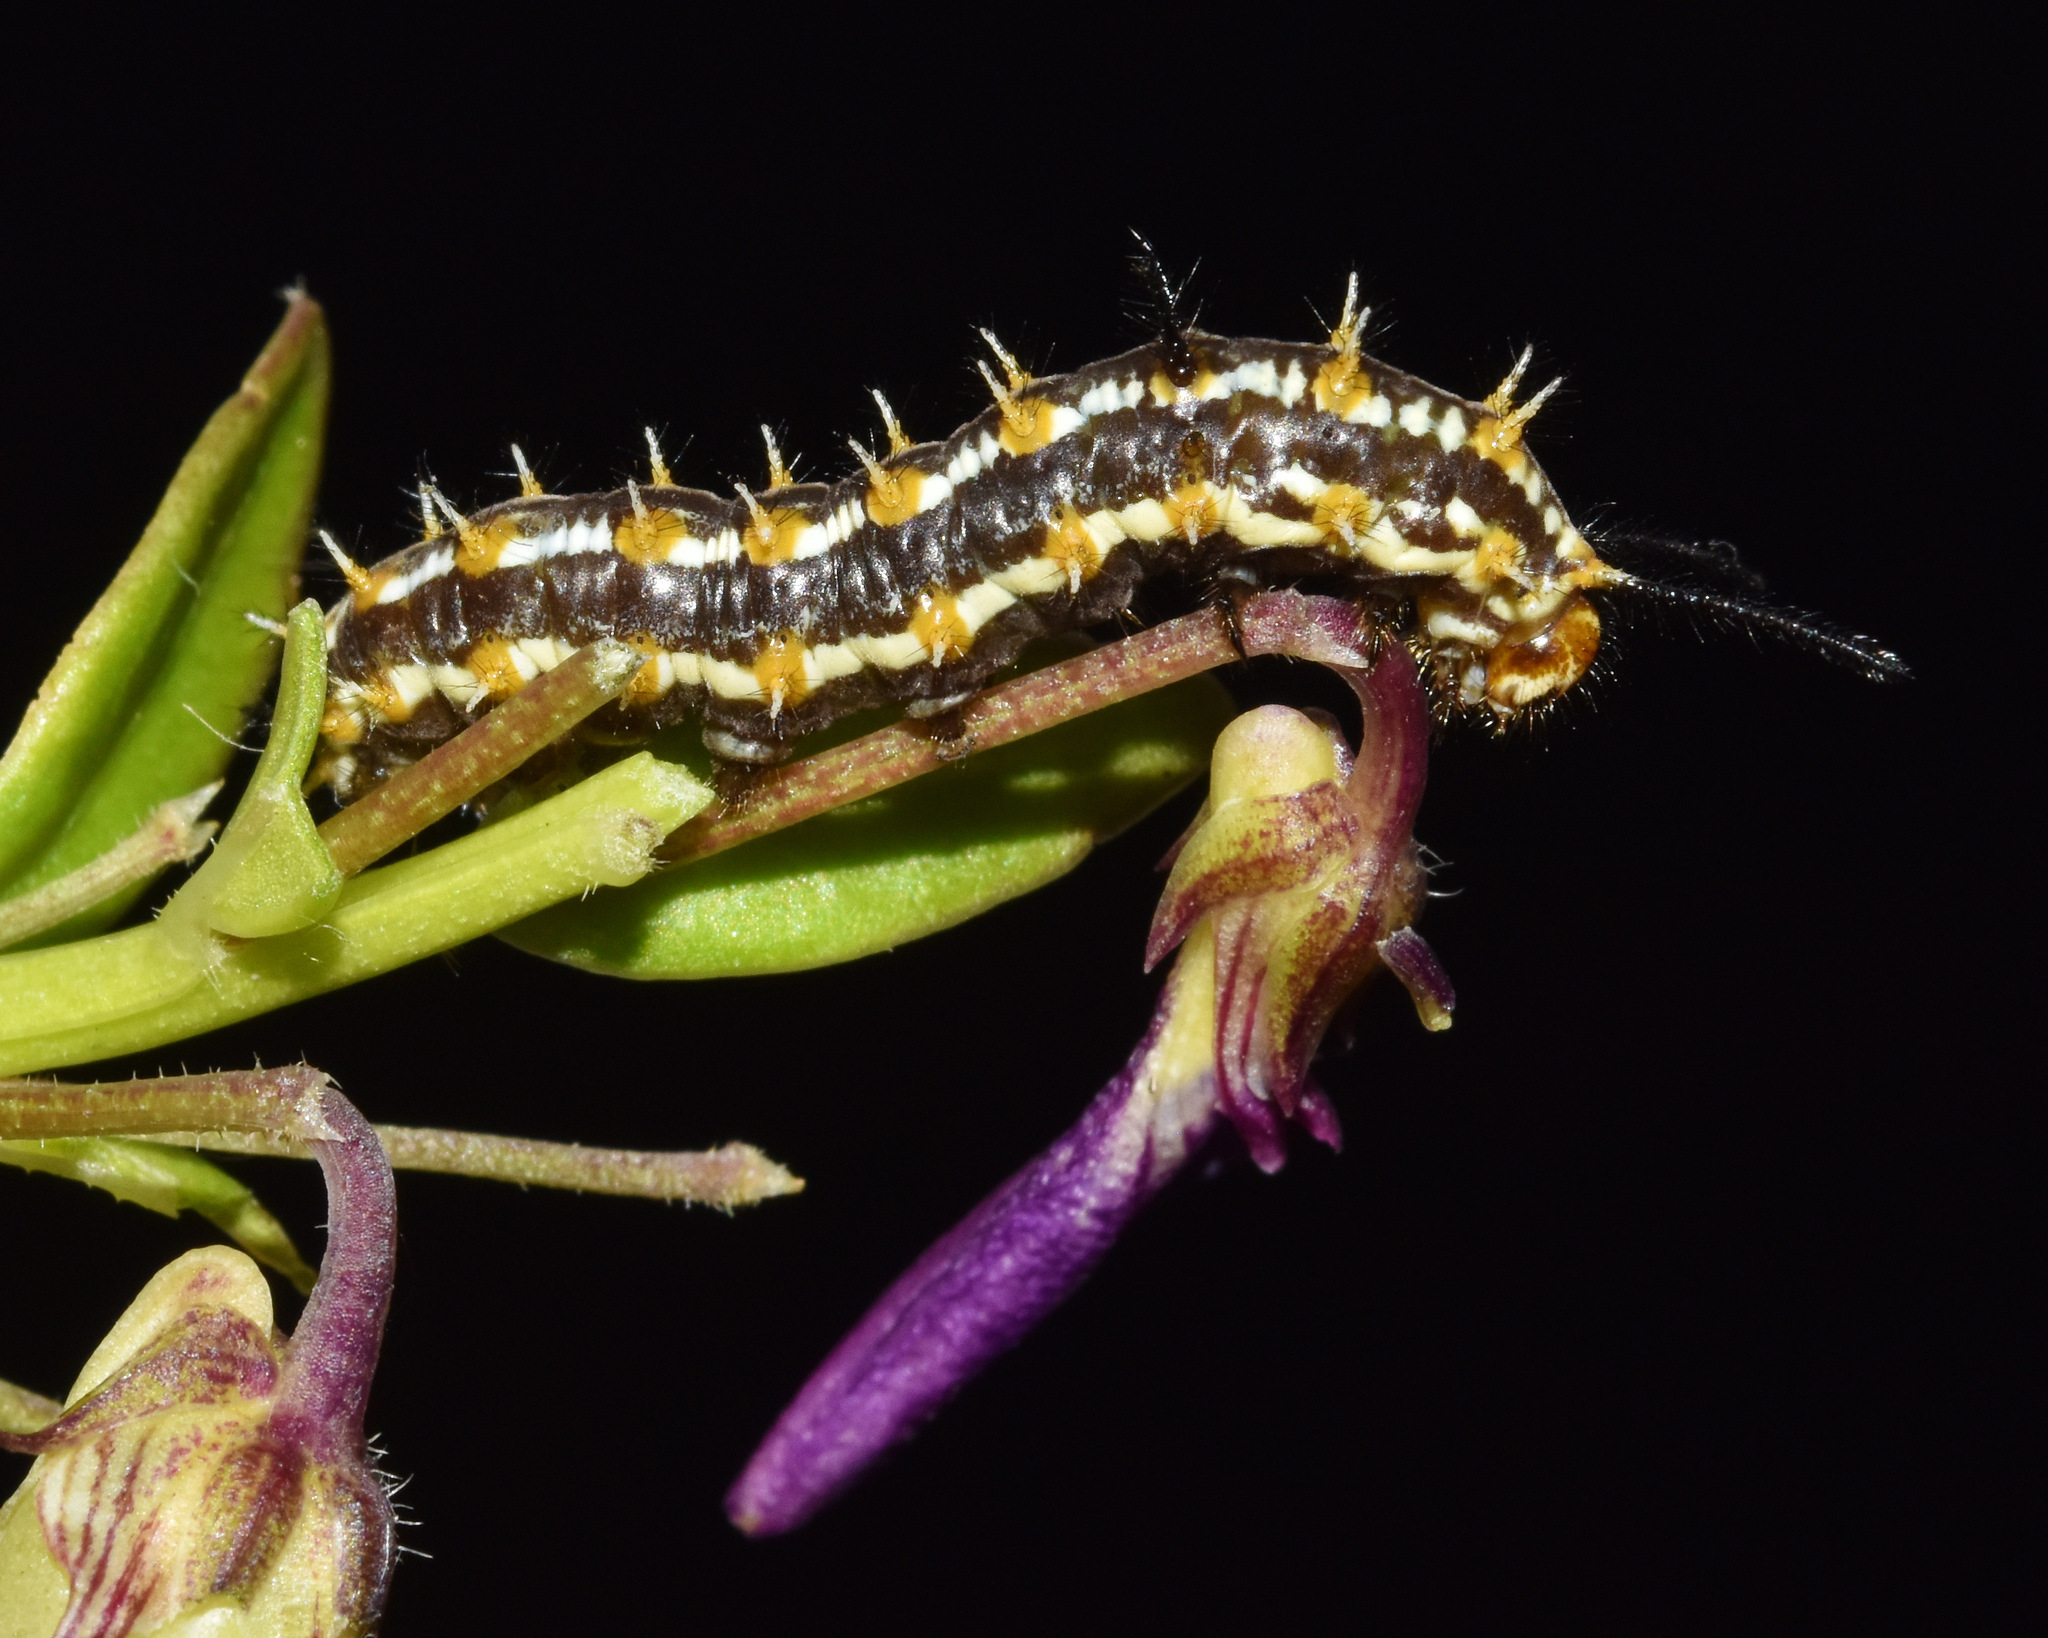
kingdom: Animalia
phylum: Arthropoda
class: Insecta
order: Lepidoptera
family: Nymphalidae
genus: Pardopsis
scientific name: Pardopsis punctatissima
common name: Polka dot
